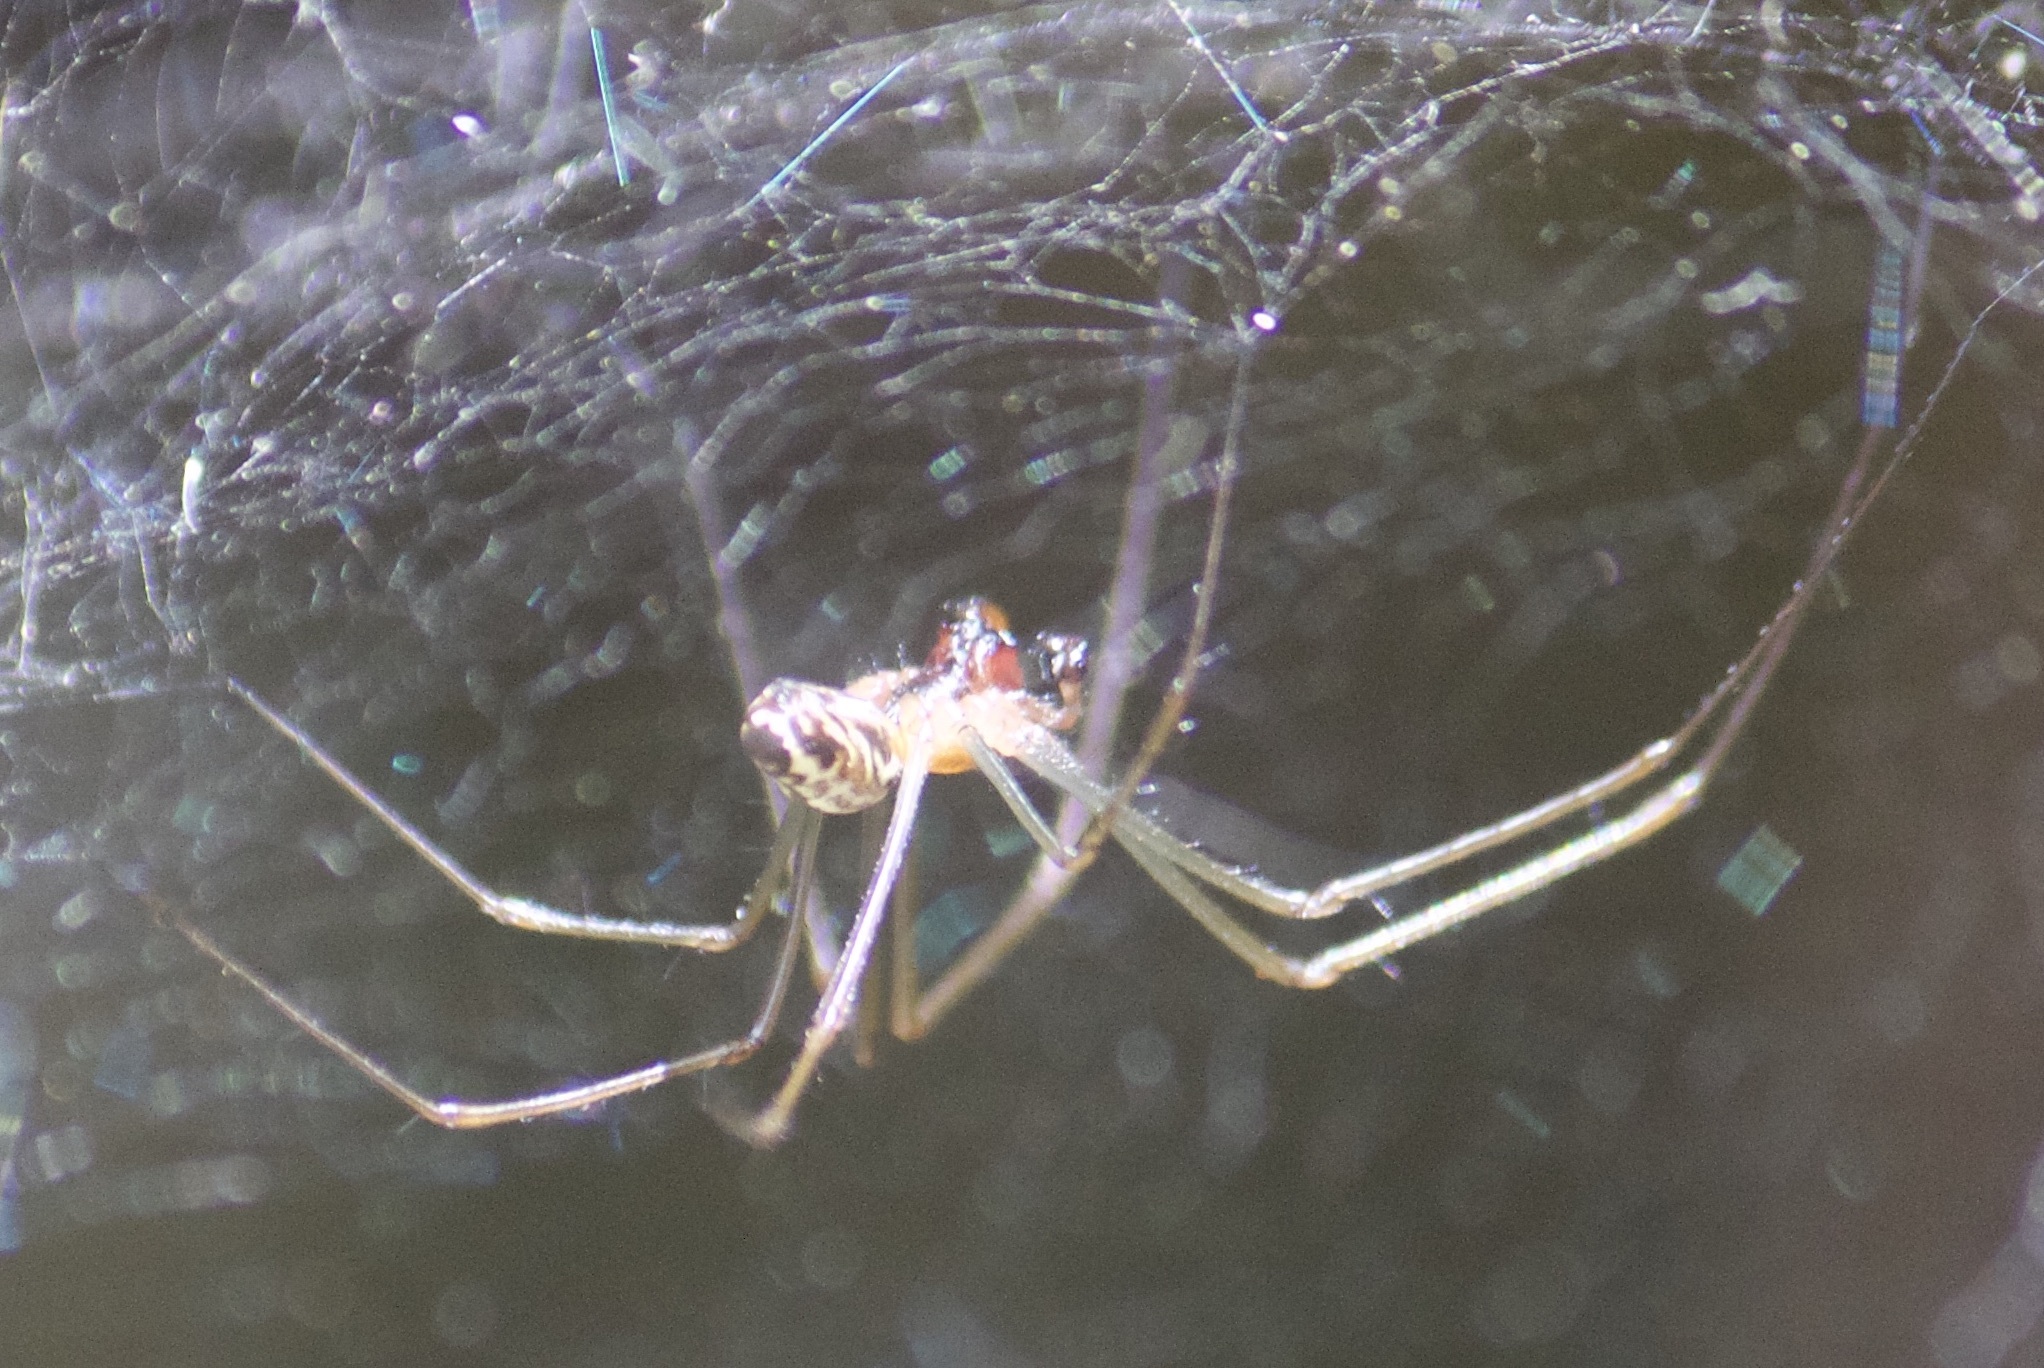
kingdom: Animalia
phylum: Arthropoda
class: Arachnida
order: Araneae
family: Linyphiidae
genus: Neriene
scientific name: Neriene litigiosa
